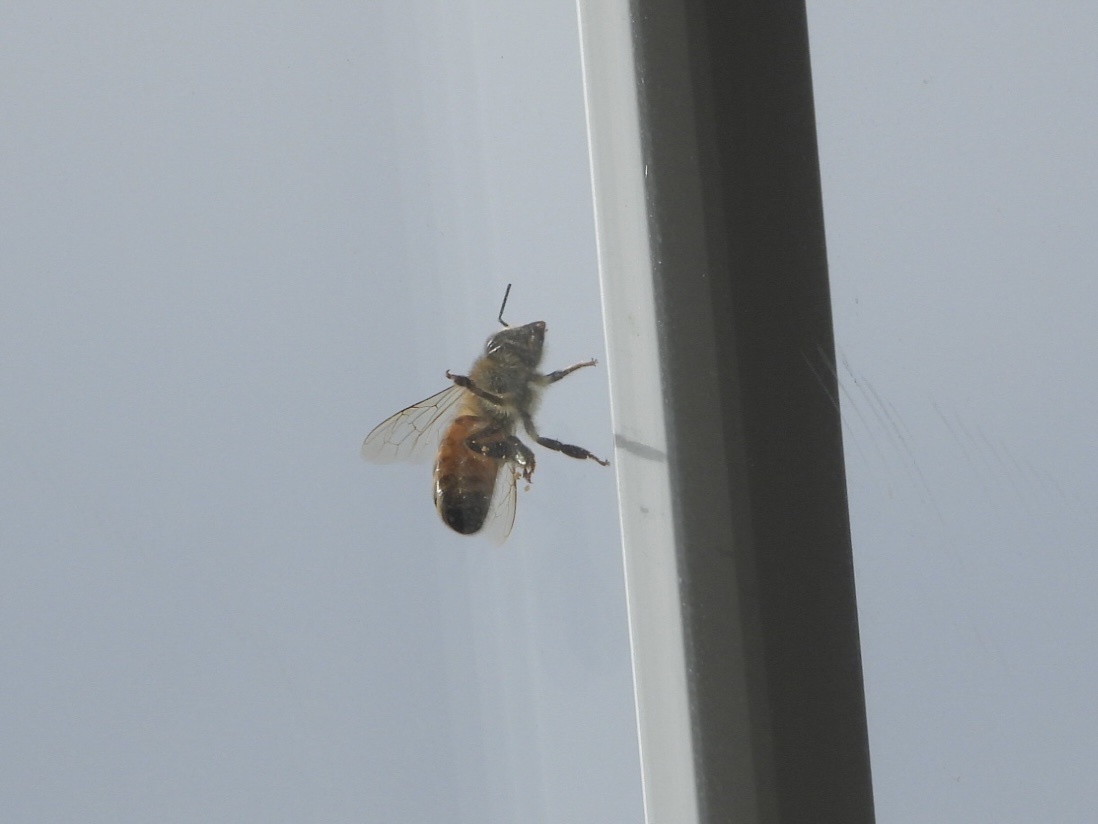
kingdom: Animalia
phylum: Arthropoda
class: Insecta
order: Hymenoptera
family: Apidae
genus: Apis
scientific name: Apis mellifera
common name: Honey bee
